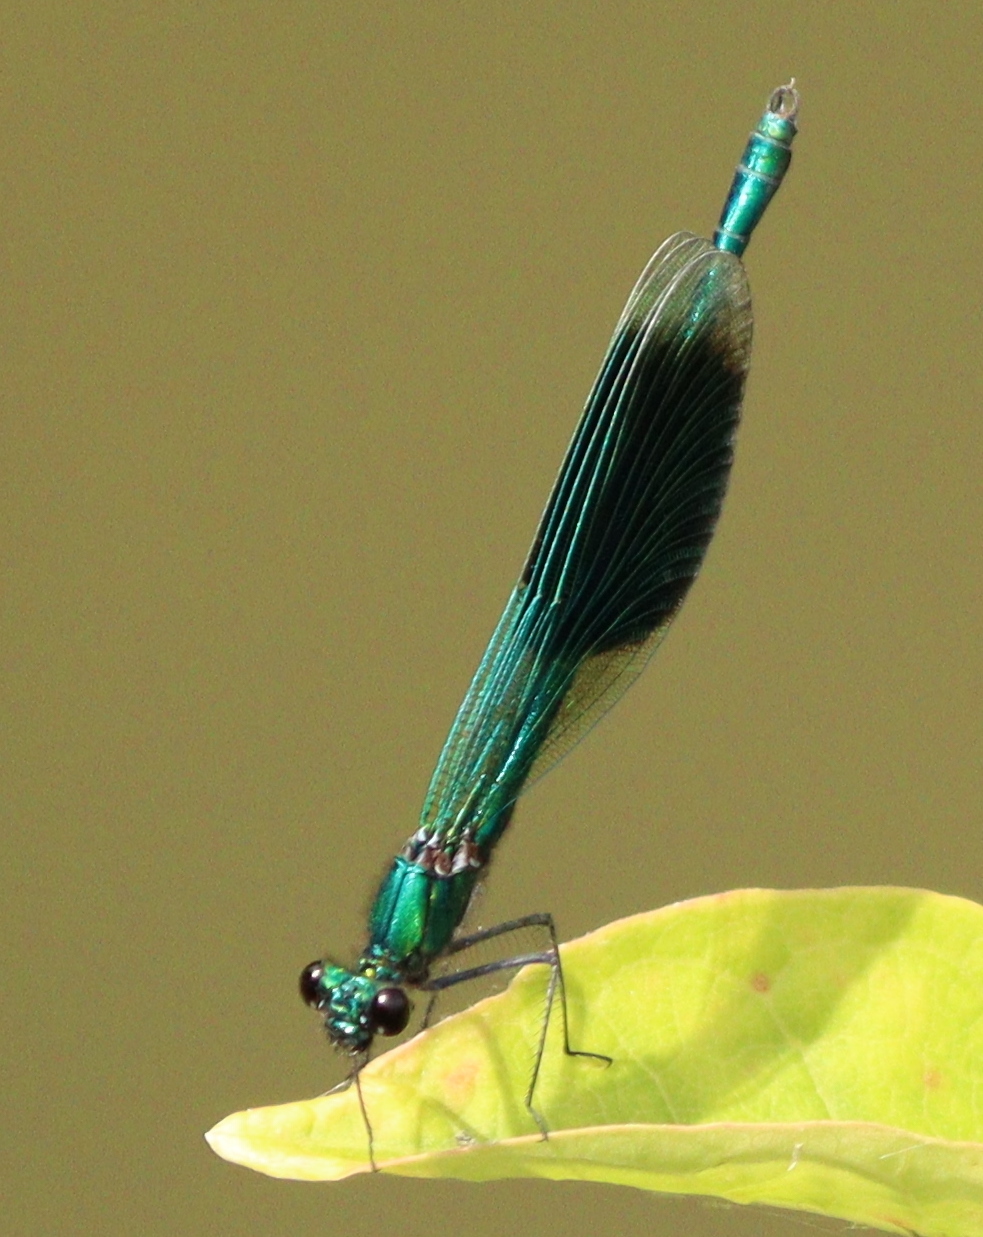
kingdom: Animalia
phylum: Arthropoda
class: Insecta
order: Odonata
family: Calopterygidae
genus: Calopteryx
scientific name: Calopteryx splendens
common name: Banded demoiselle
